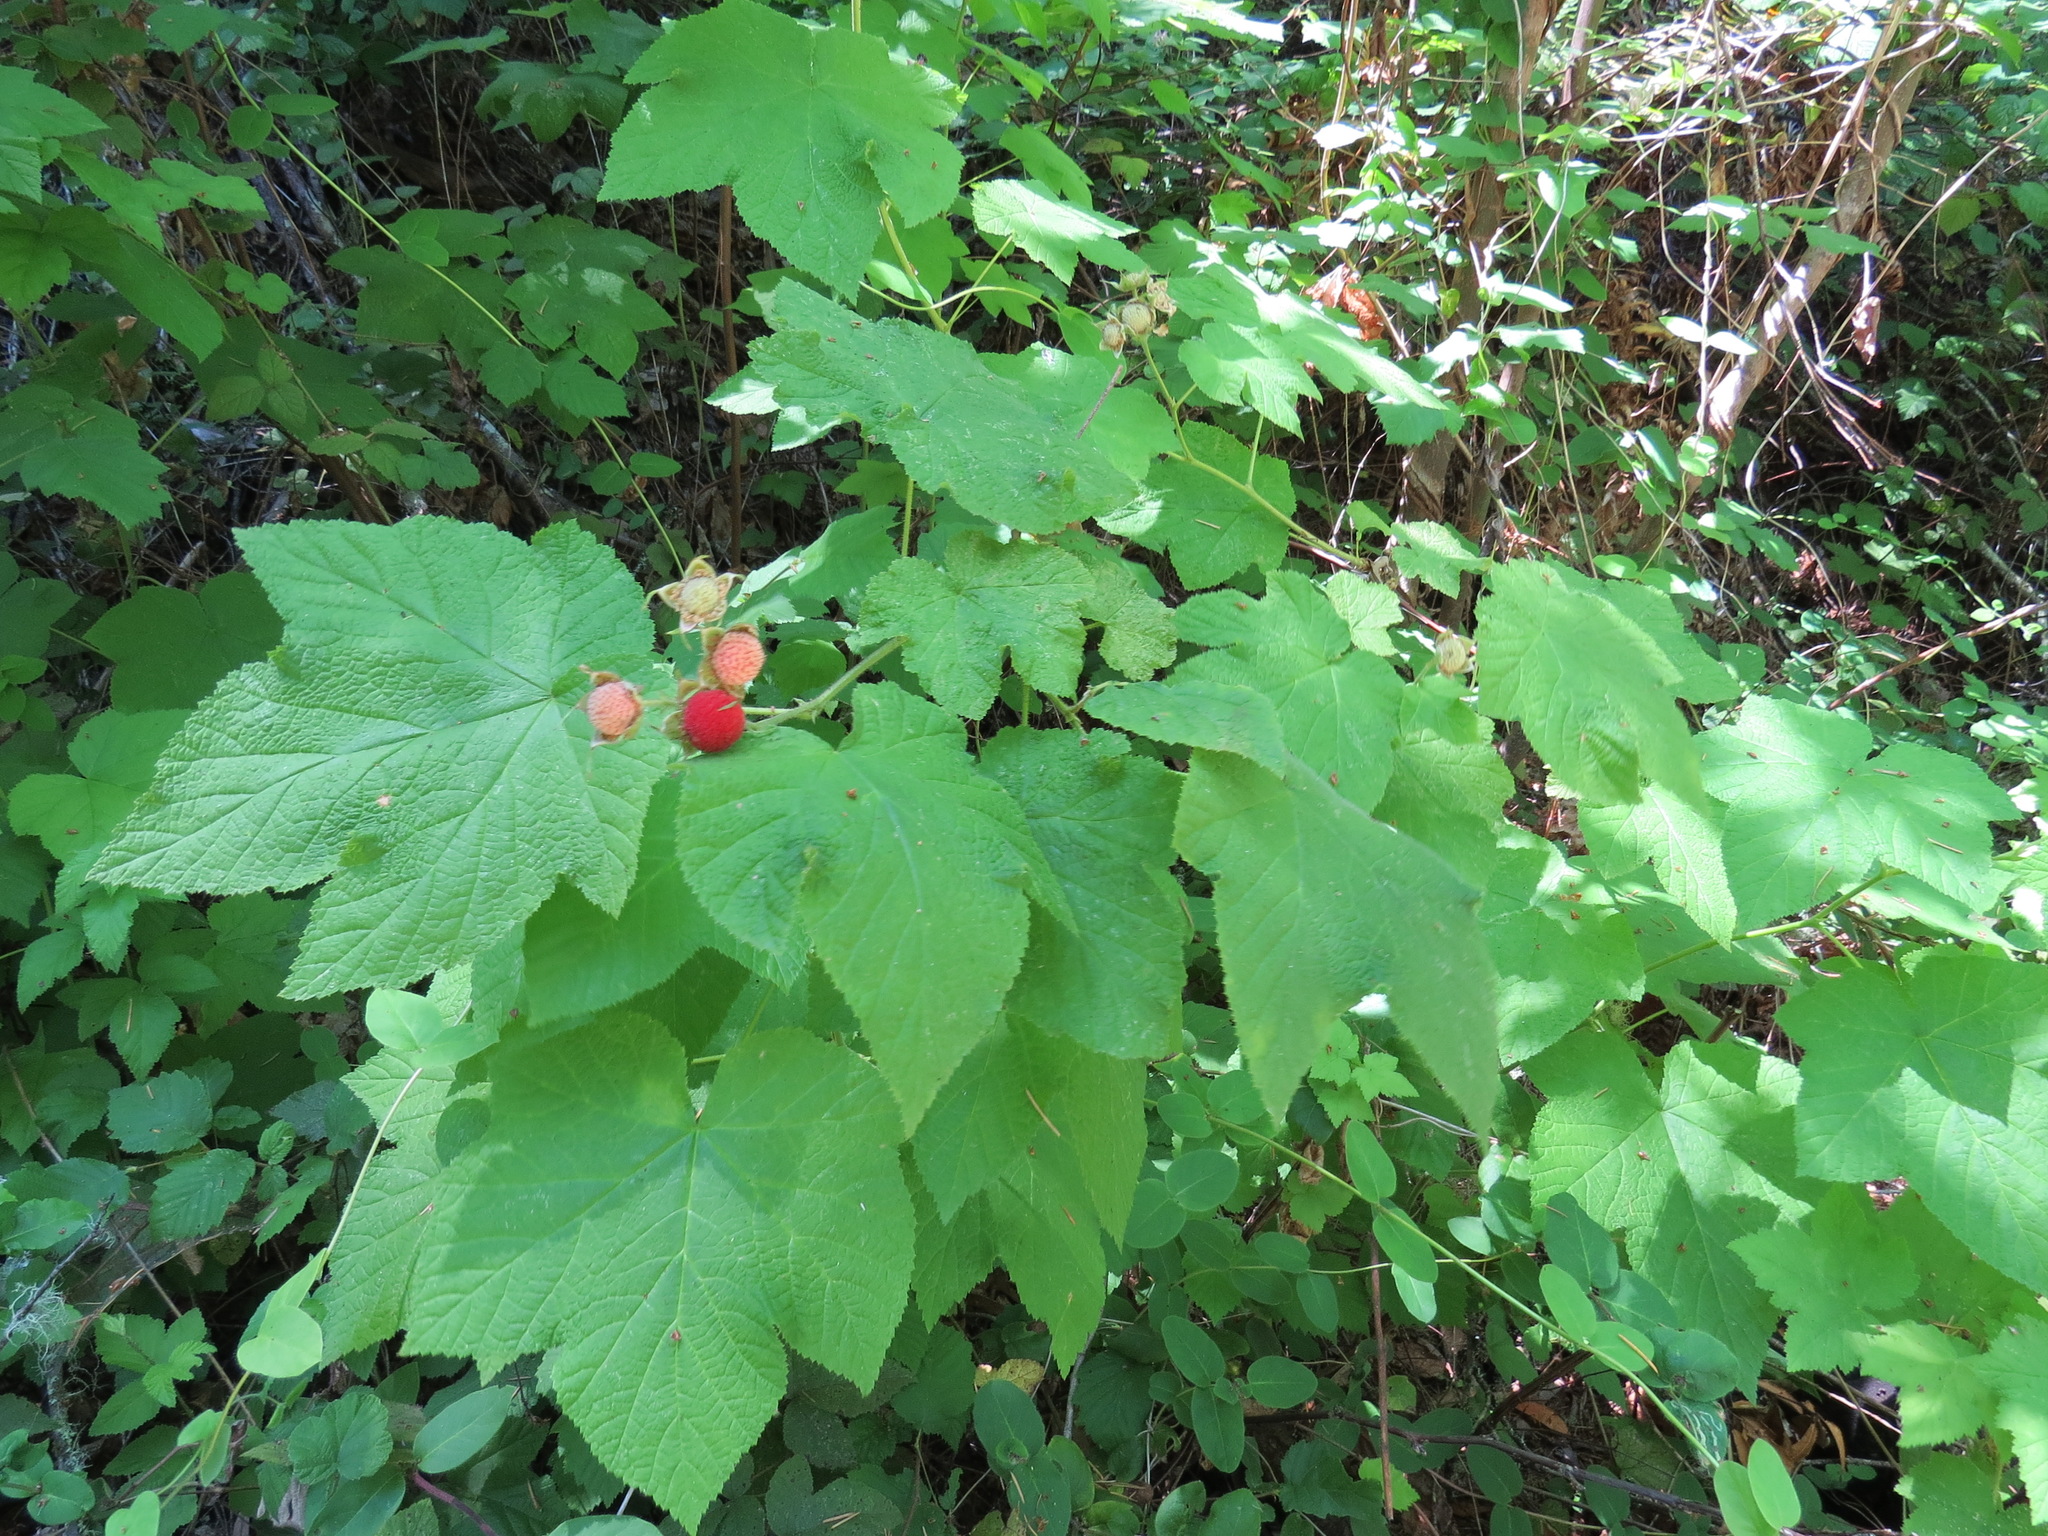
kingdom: Plantae
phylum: Tracheophyta
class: Magnoliopsida
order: Rosales
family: Rosaceae
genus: Rubus
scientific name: Rubus parviflorus
